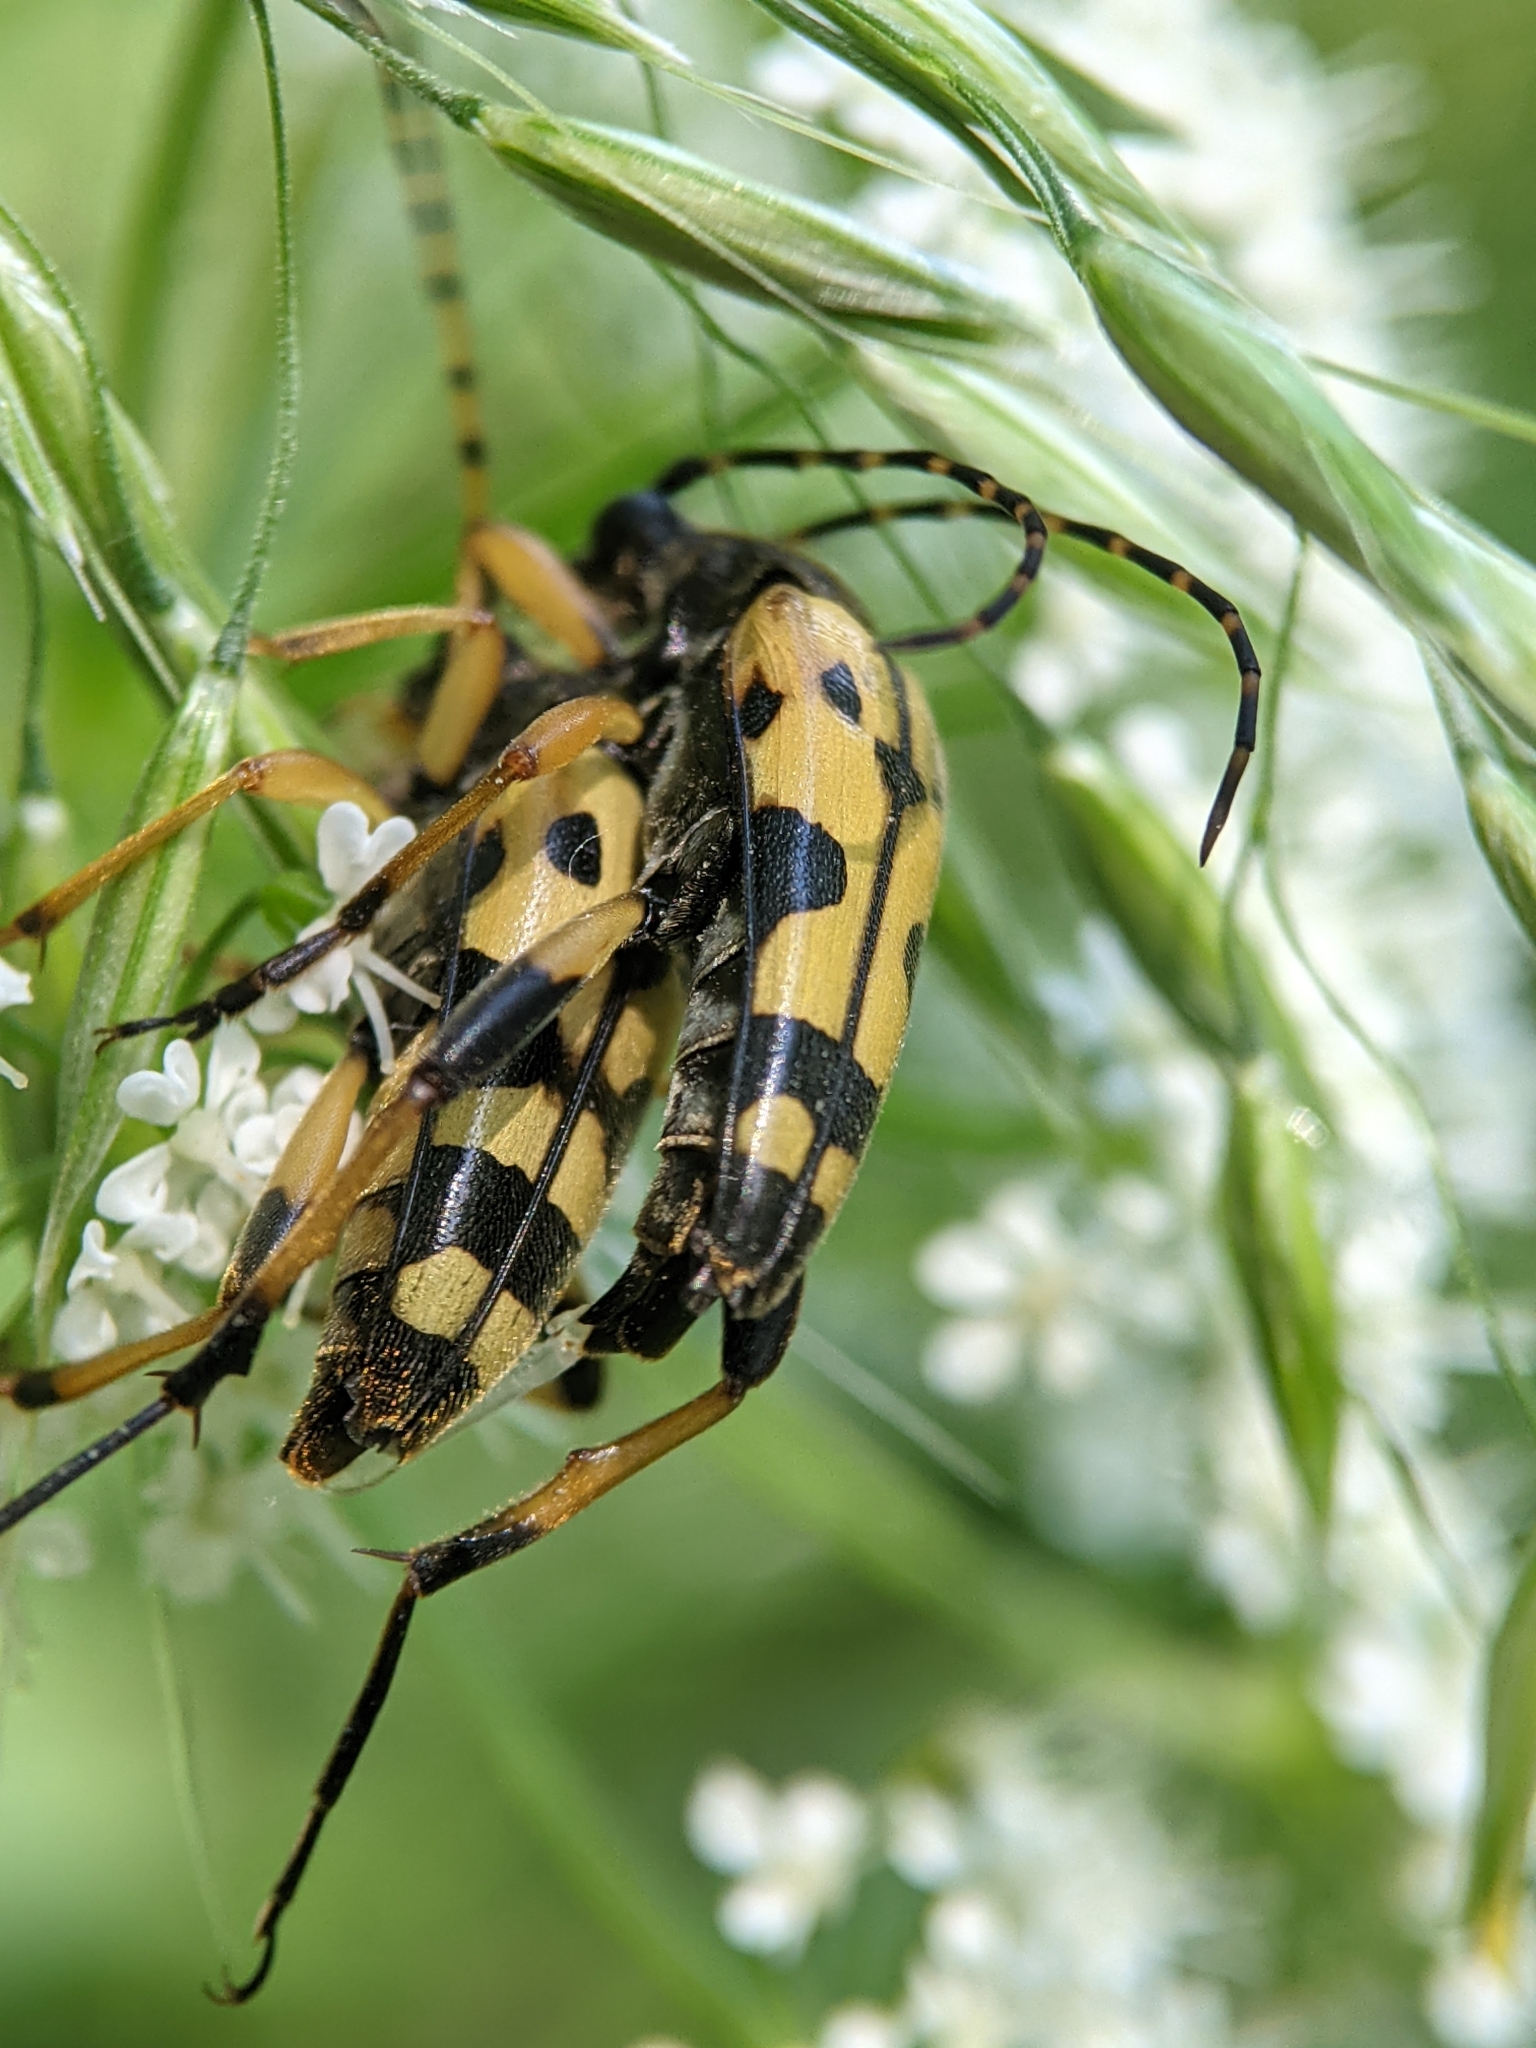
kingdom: Animalia
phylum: Arthropoda
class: Insecta
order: Coleoptera
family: Cerambycidae
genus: Rutpela
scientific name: Rutpela maculata
